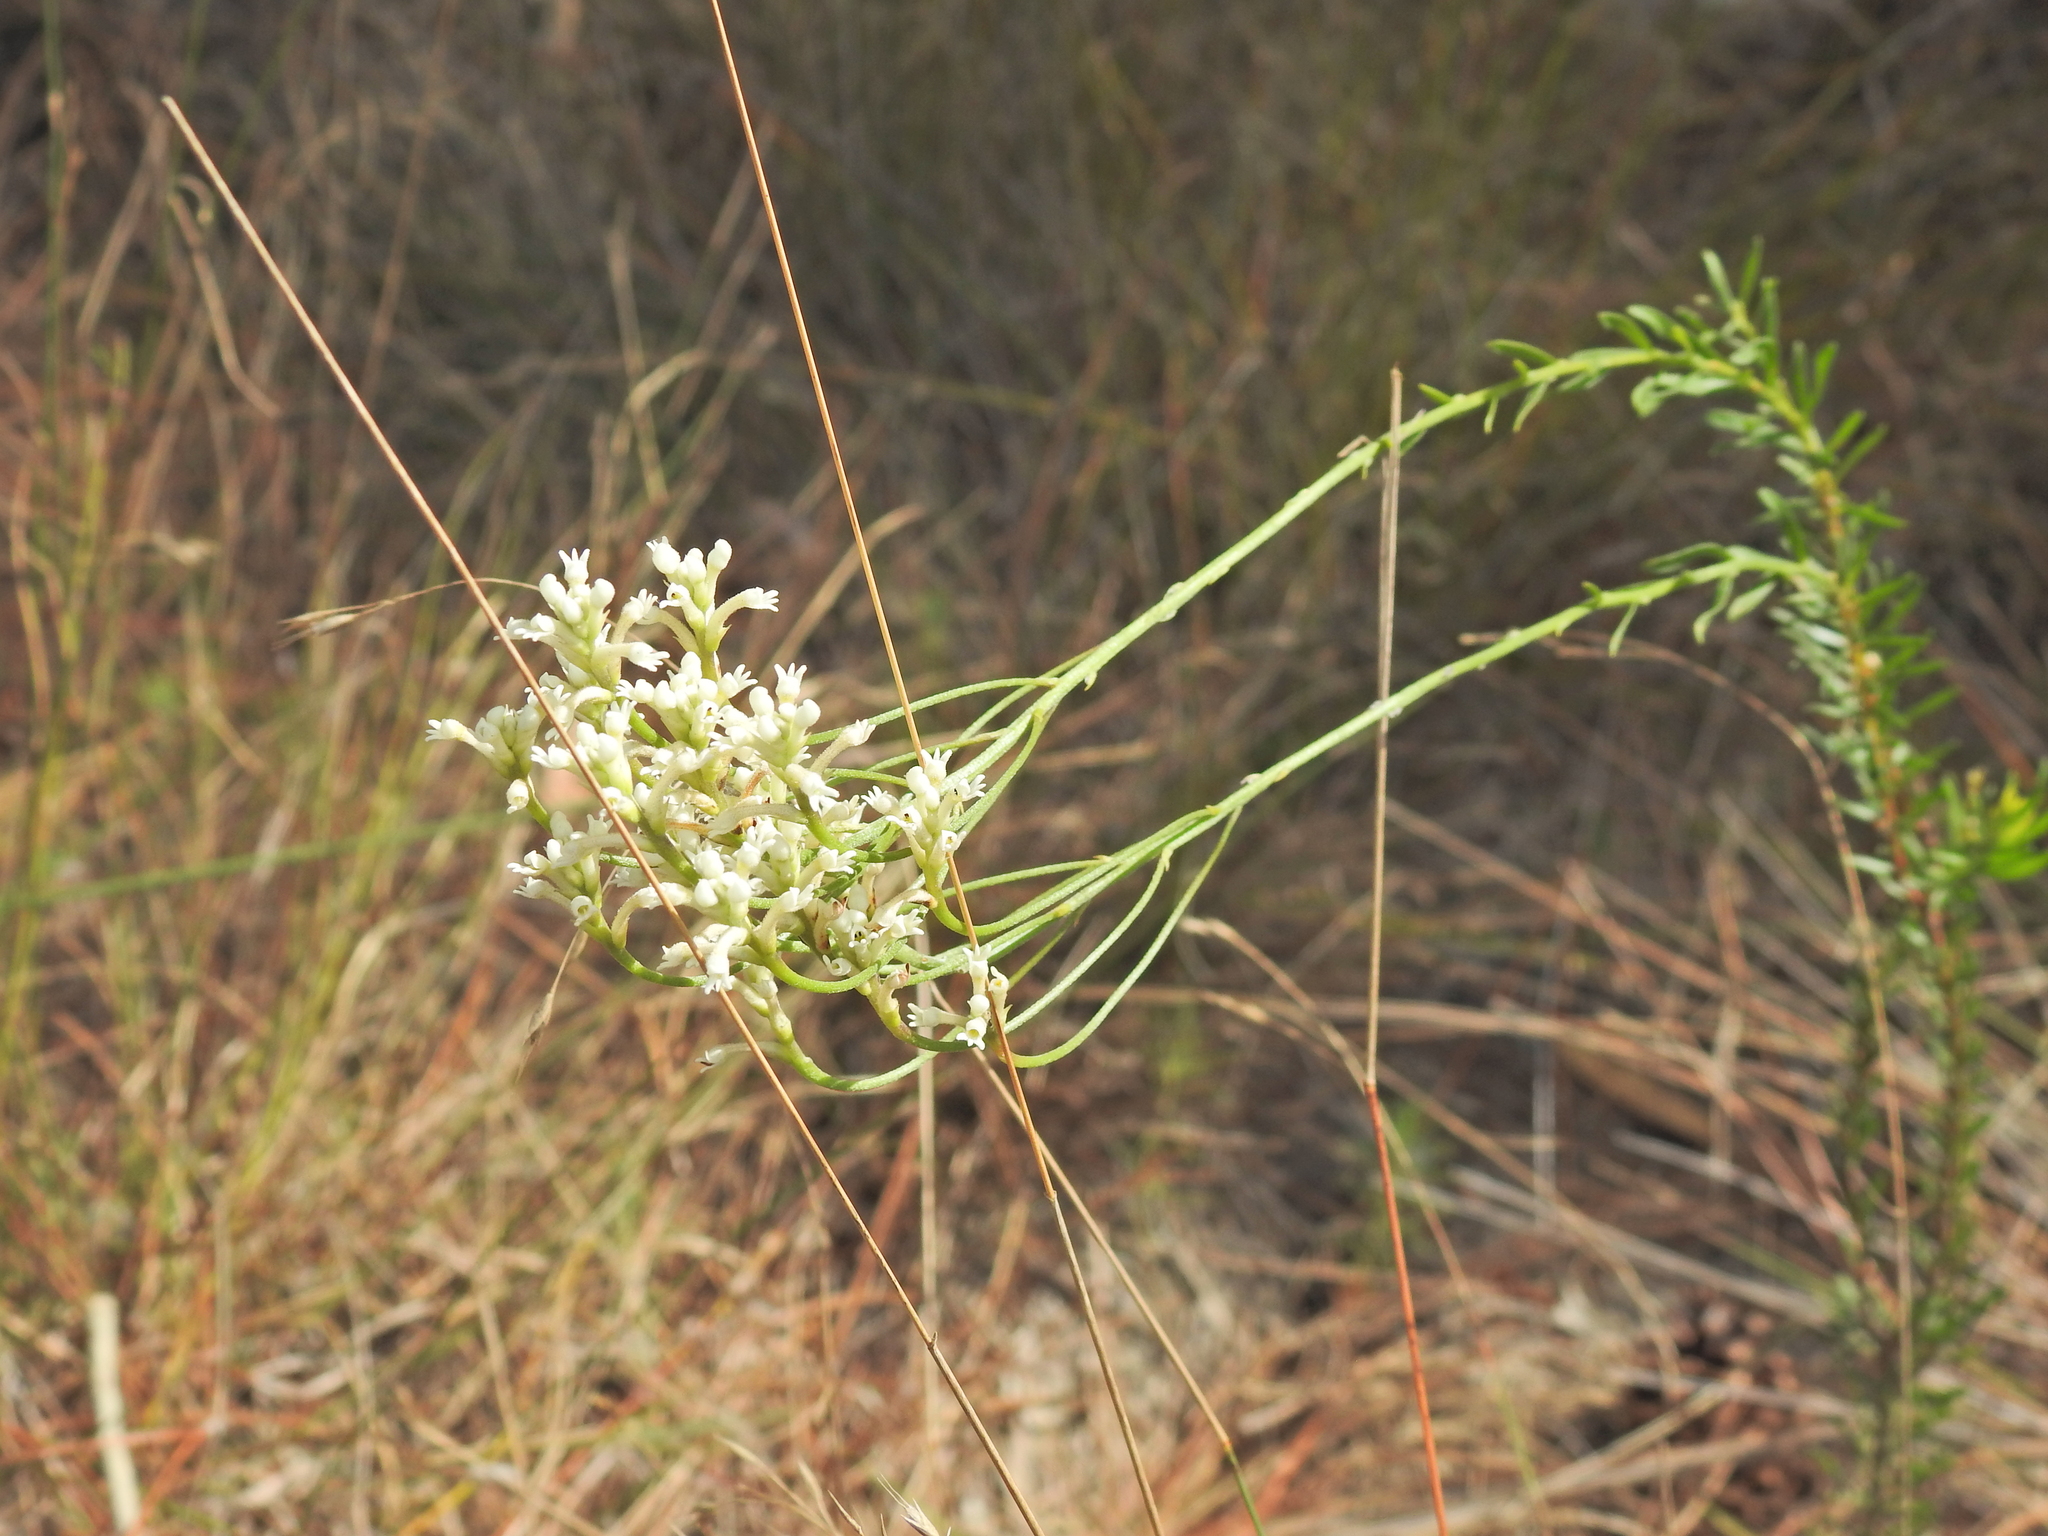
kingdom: Plantae
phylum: Tracheophyta
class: Magnoliopsida
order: Proteales
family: Proteaceae
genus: Conospermum
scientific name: Conospermum taxifolium
